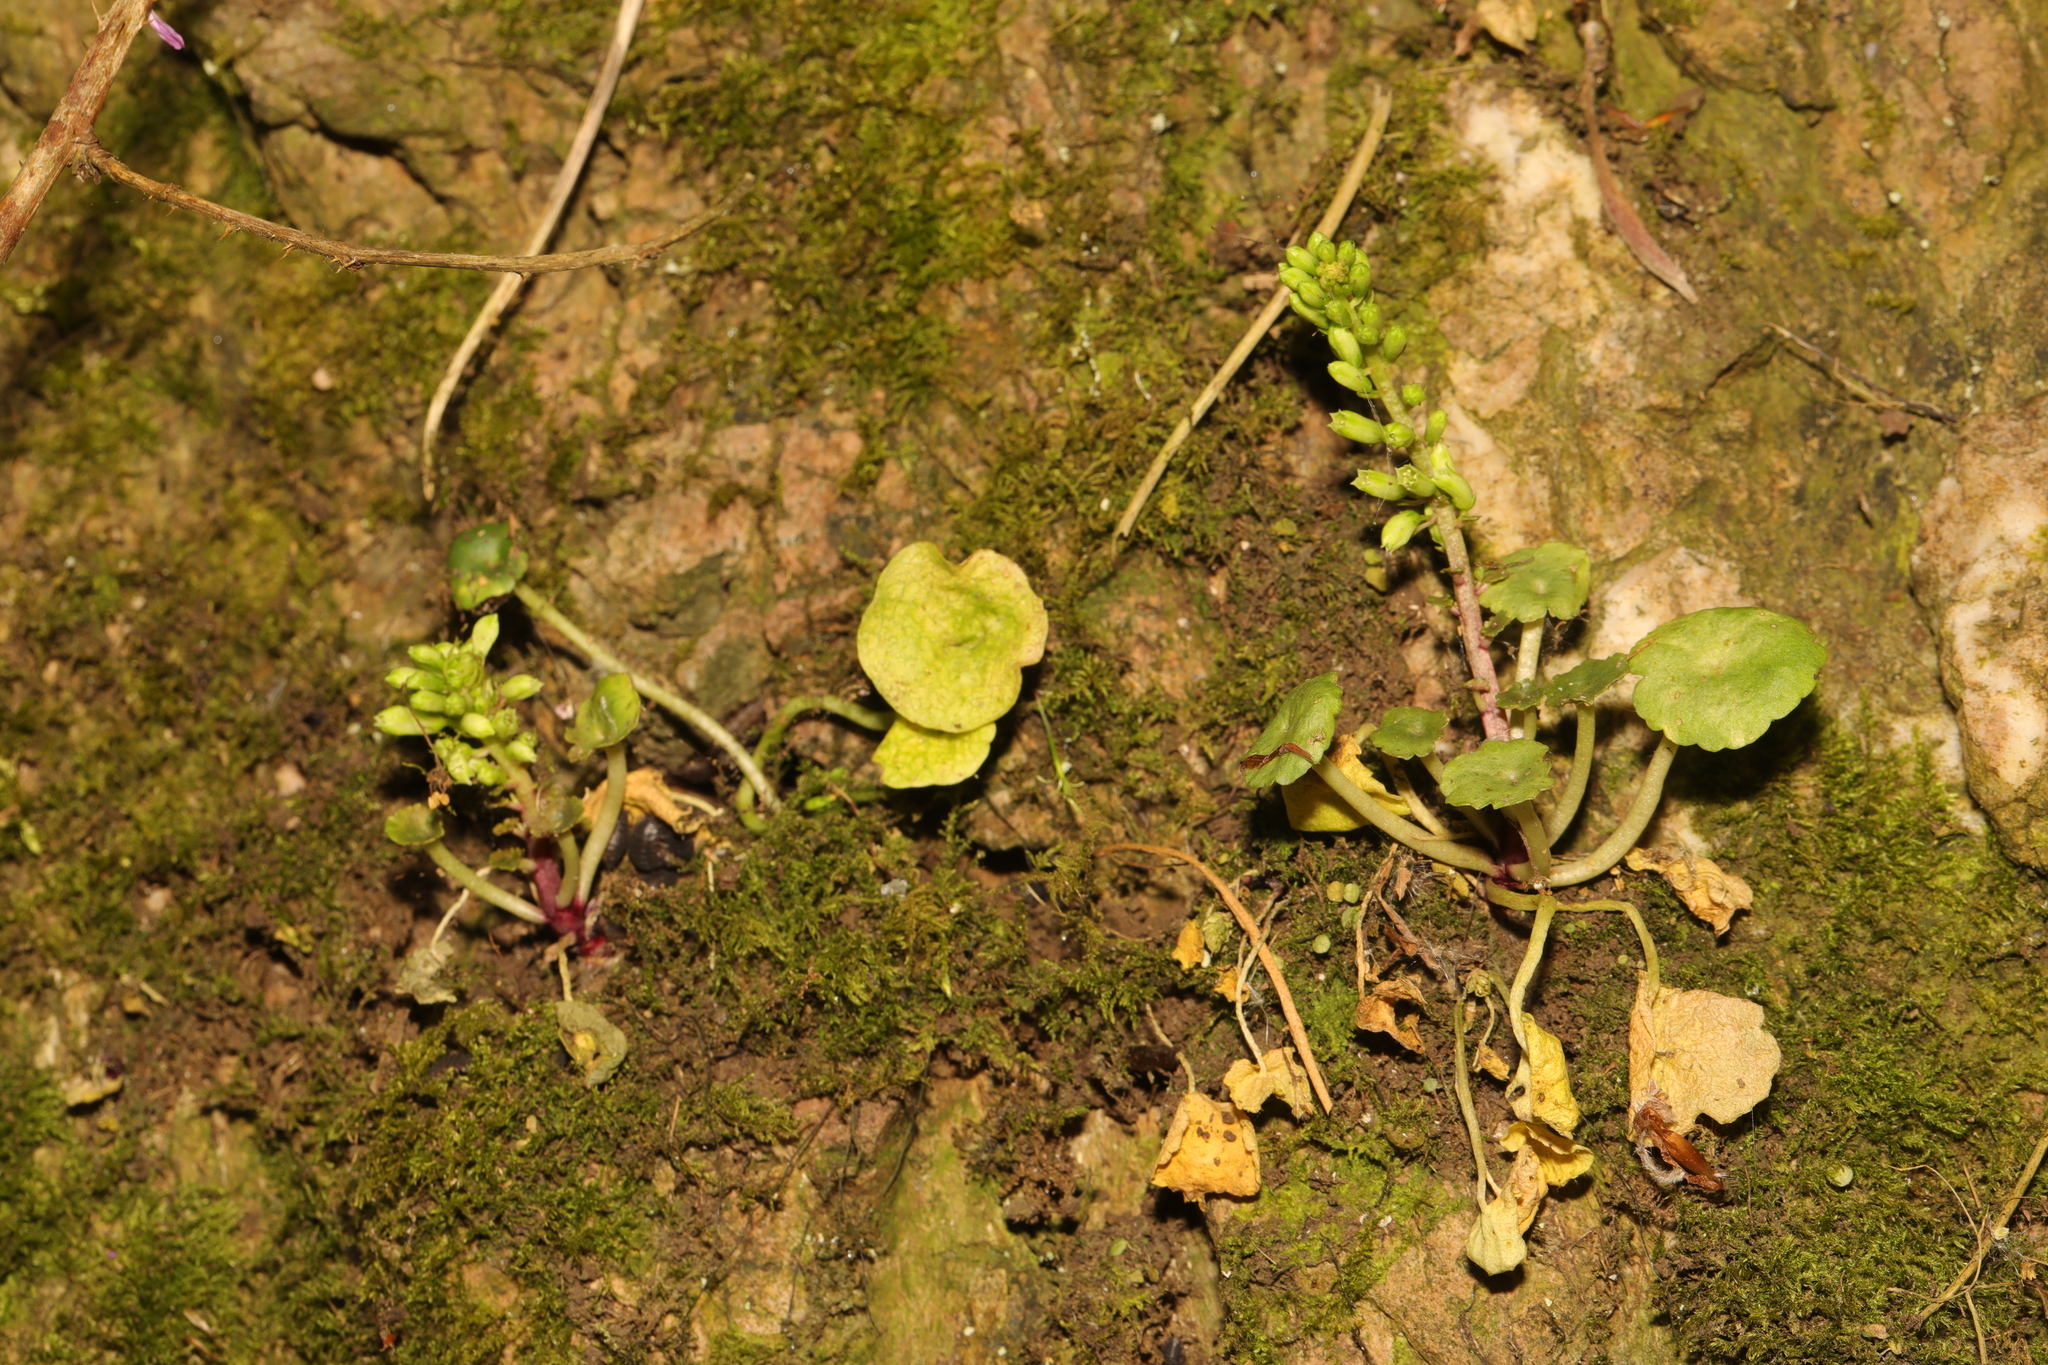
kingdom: Plantae
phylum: Tracheophyta
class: Magnoliopsida
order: Saxifragales
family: Crassulaceae
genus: Umbilicus
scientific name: Umbilicus rupestris
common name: Navelwort
